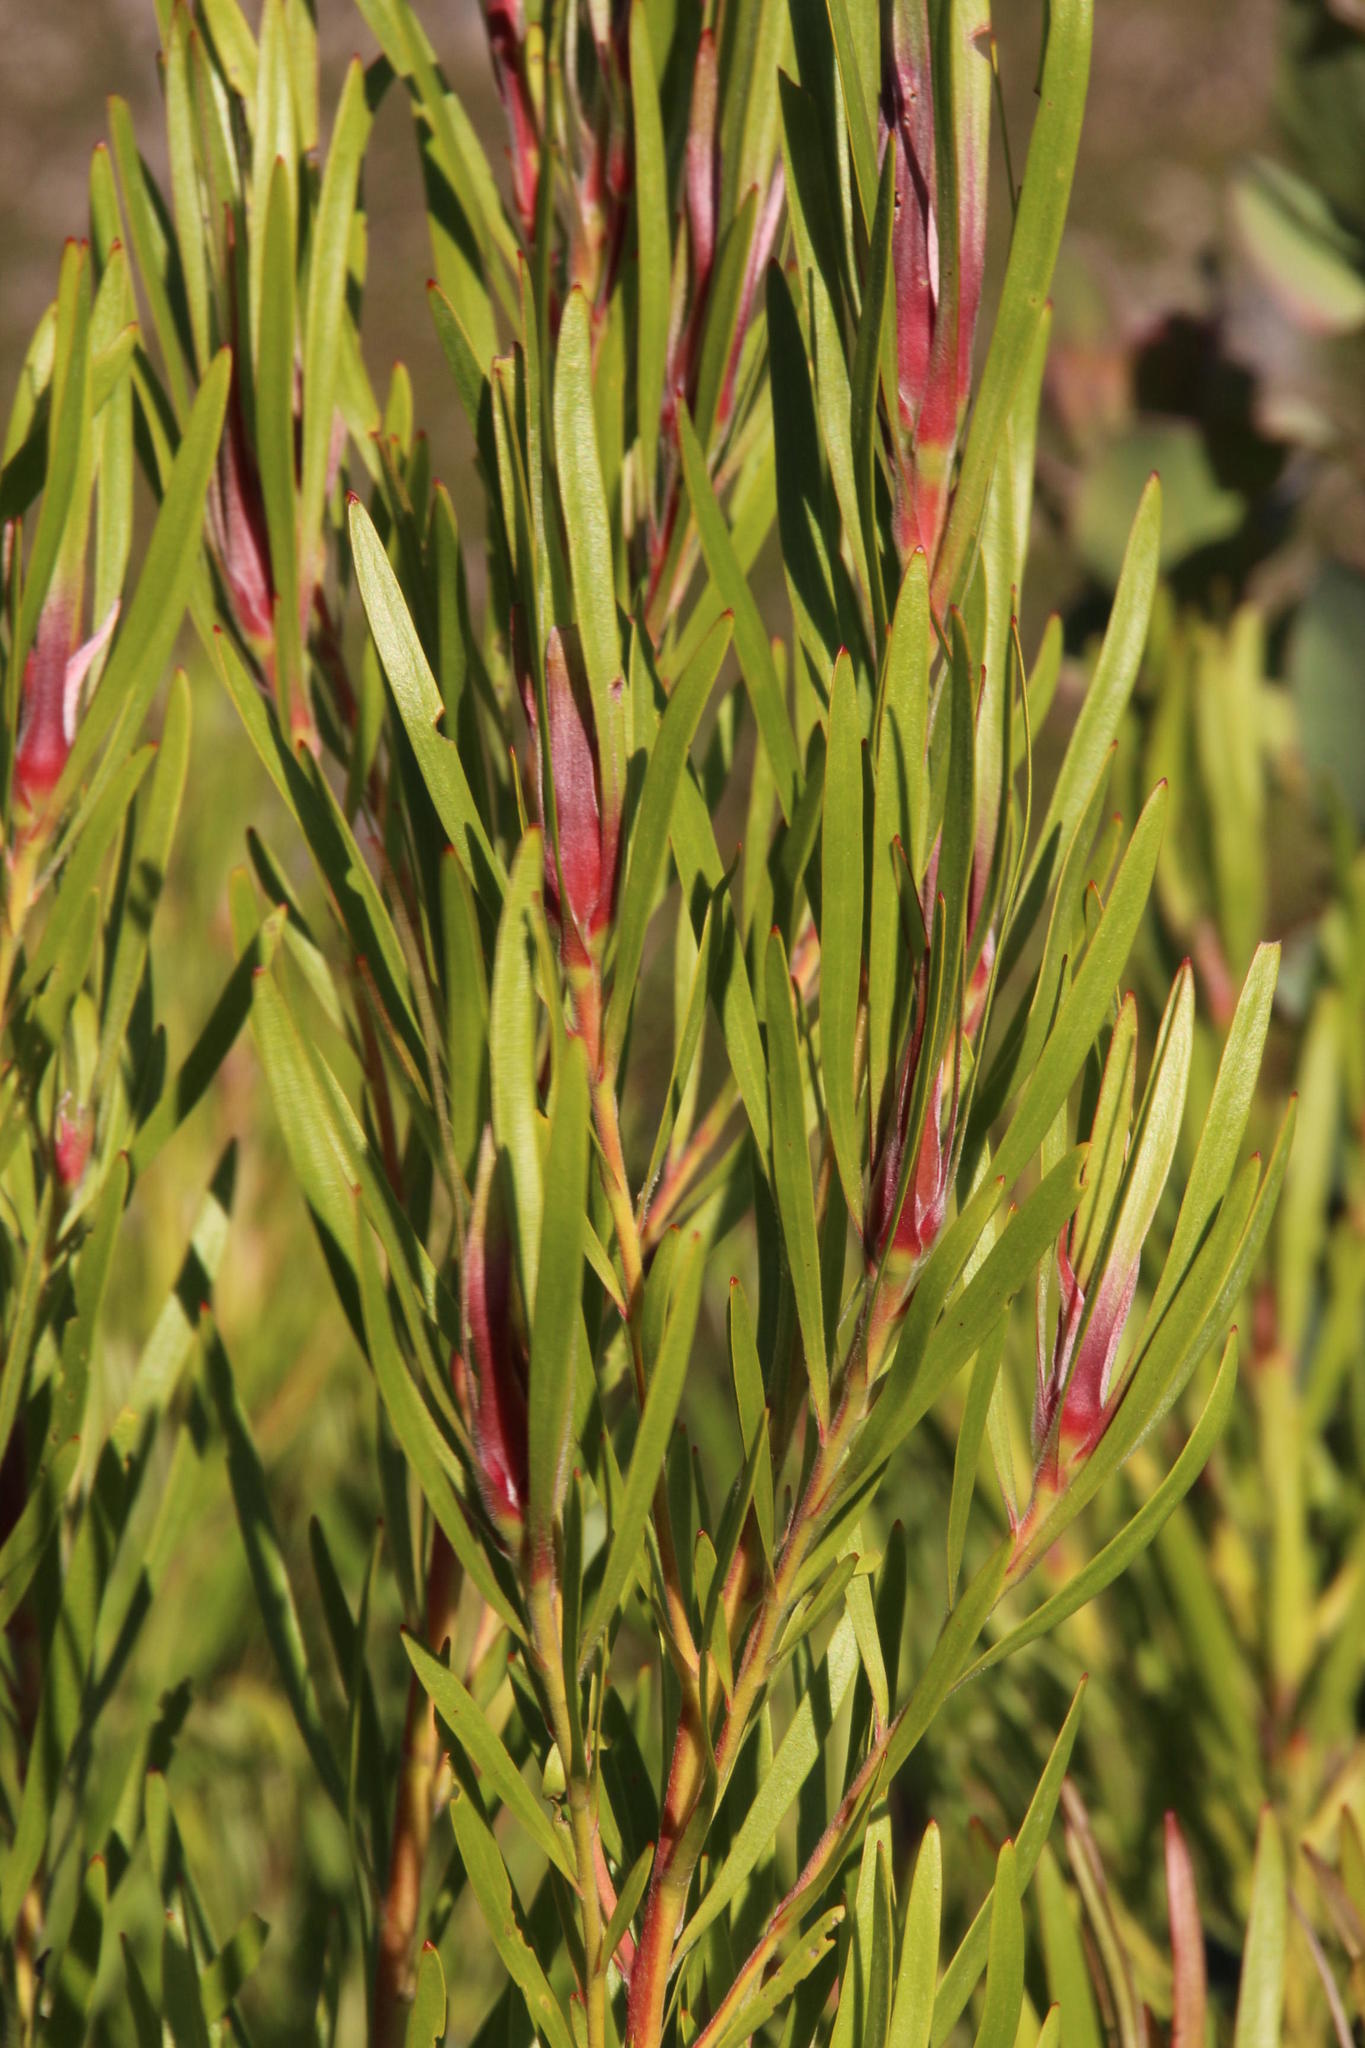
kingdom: Plantae
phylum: Tracheophyta
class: Magnoliopsida
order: Proteales
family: Proteaceae
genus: Leucadendron
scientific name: Leucadendron eucalyptifolium
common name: Gum-leaved conebush
